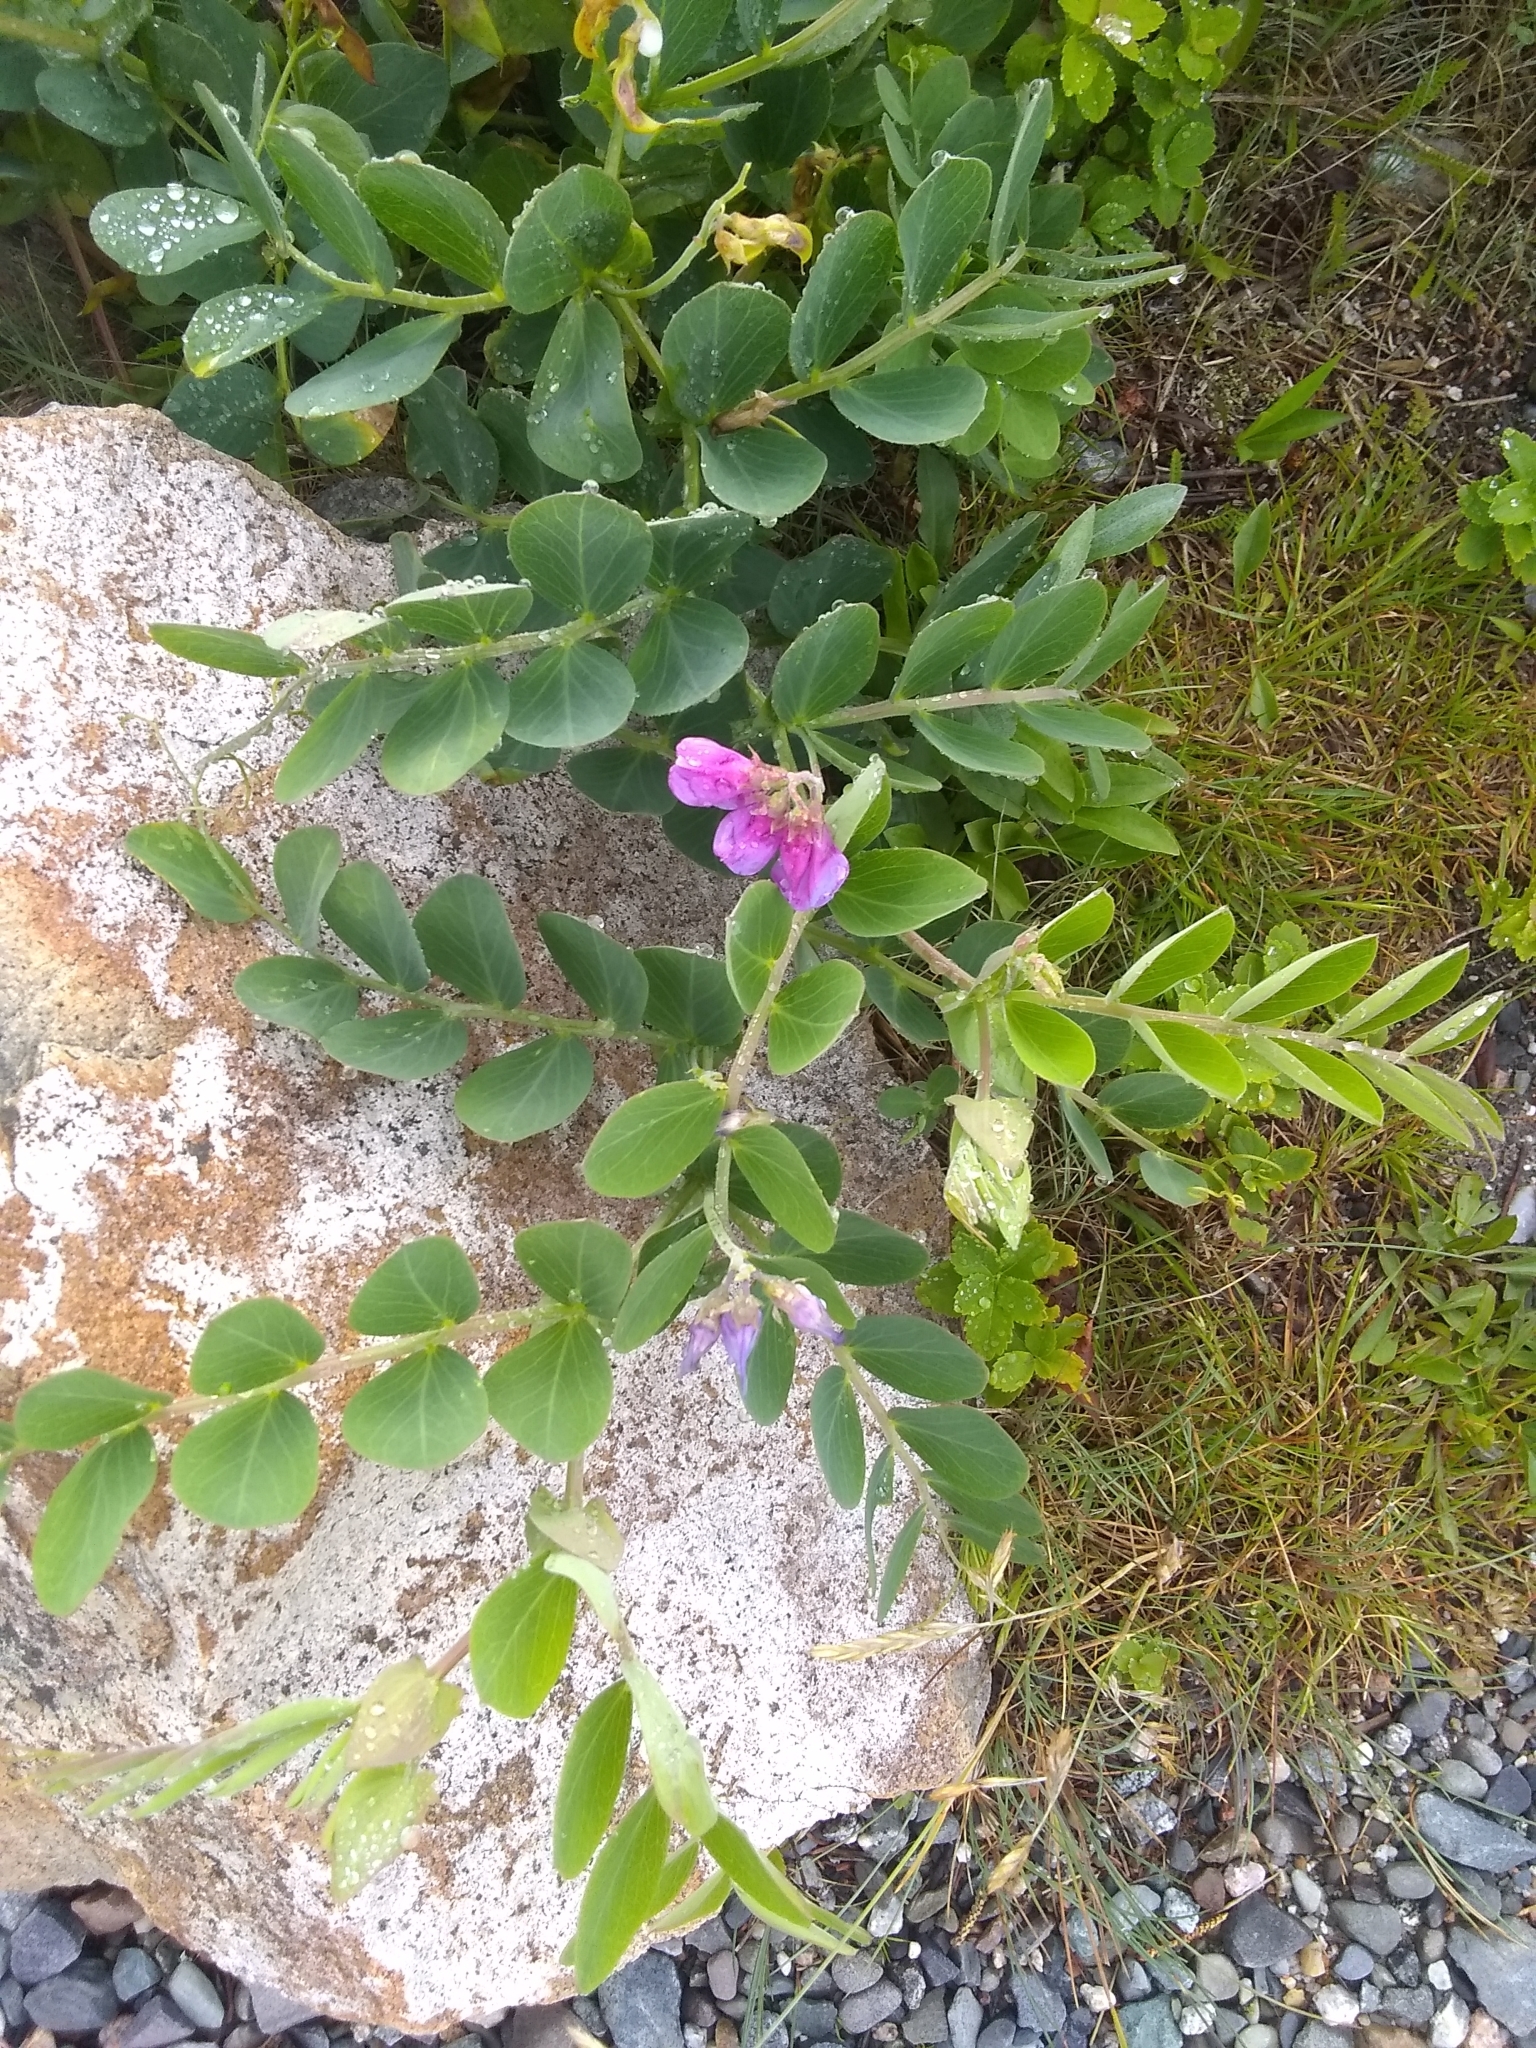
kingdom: Plantae
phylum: Tracheophyta
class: Magnoliopsida
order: Fabales
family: Fabaceae
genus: Lathyrus
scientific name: Lathyrus japonicus
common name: Sea pea
